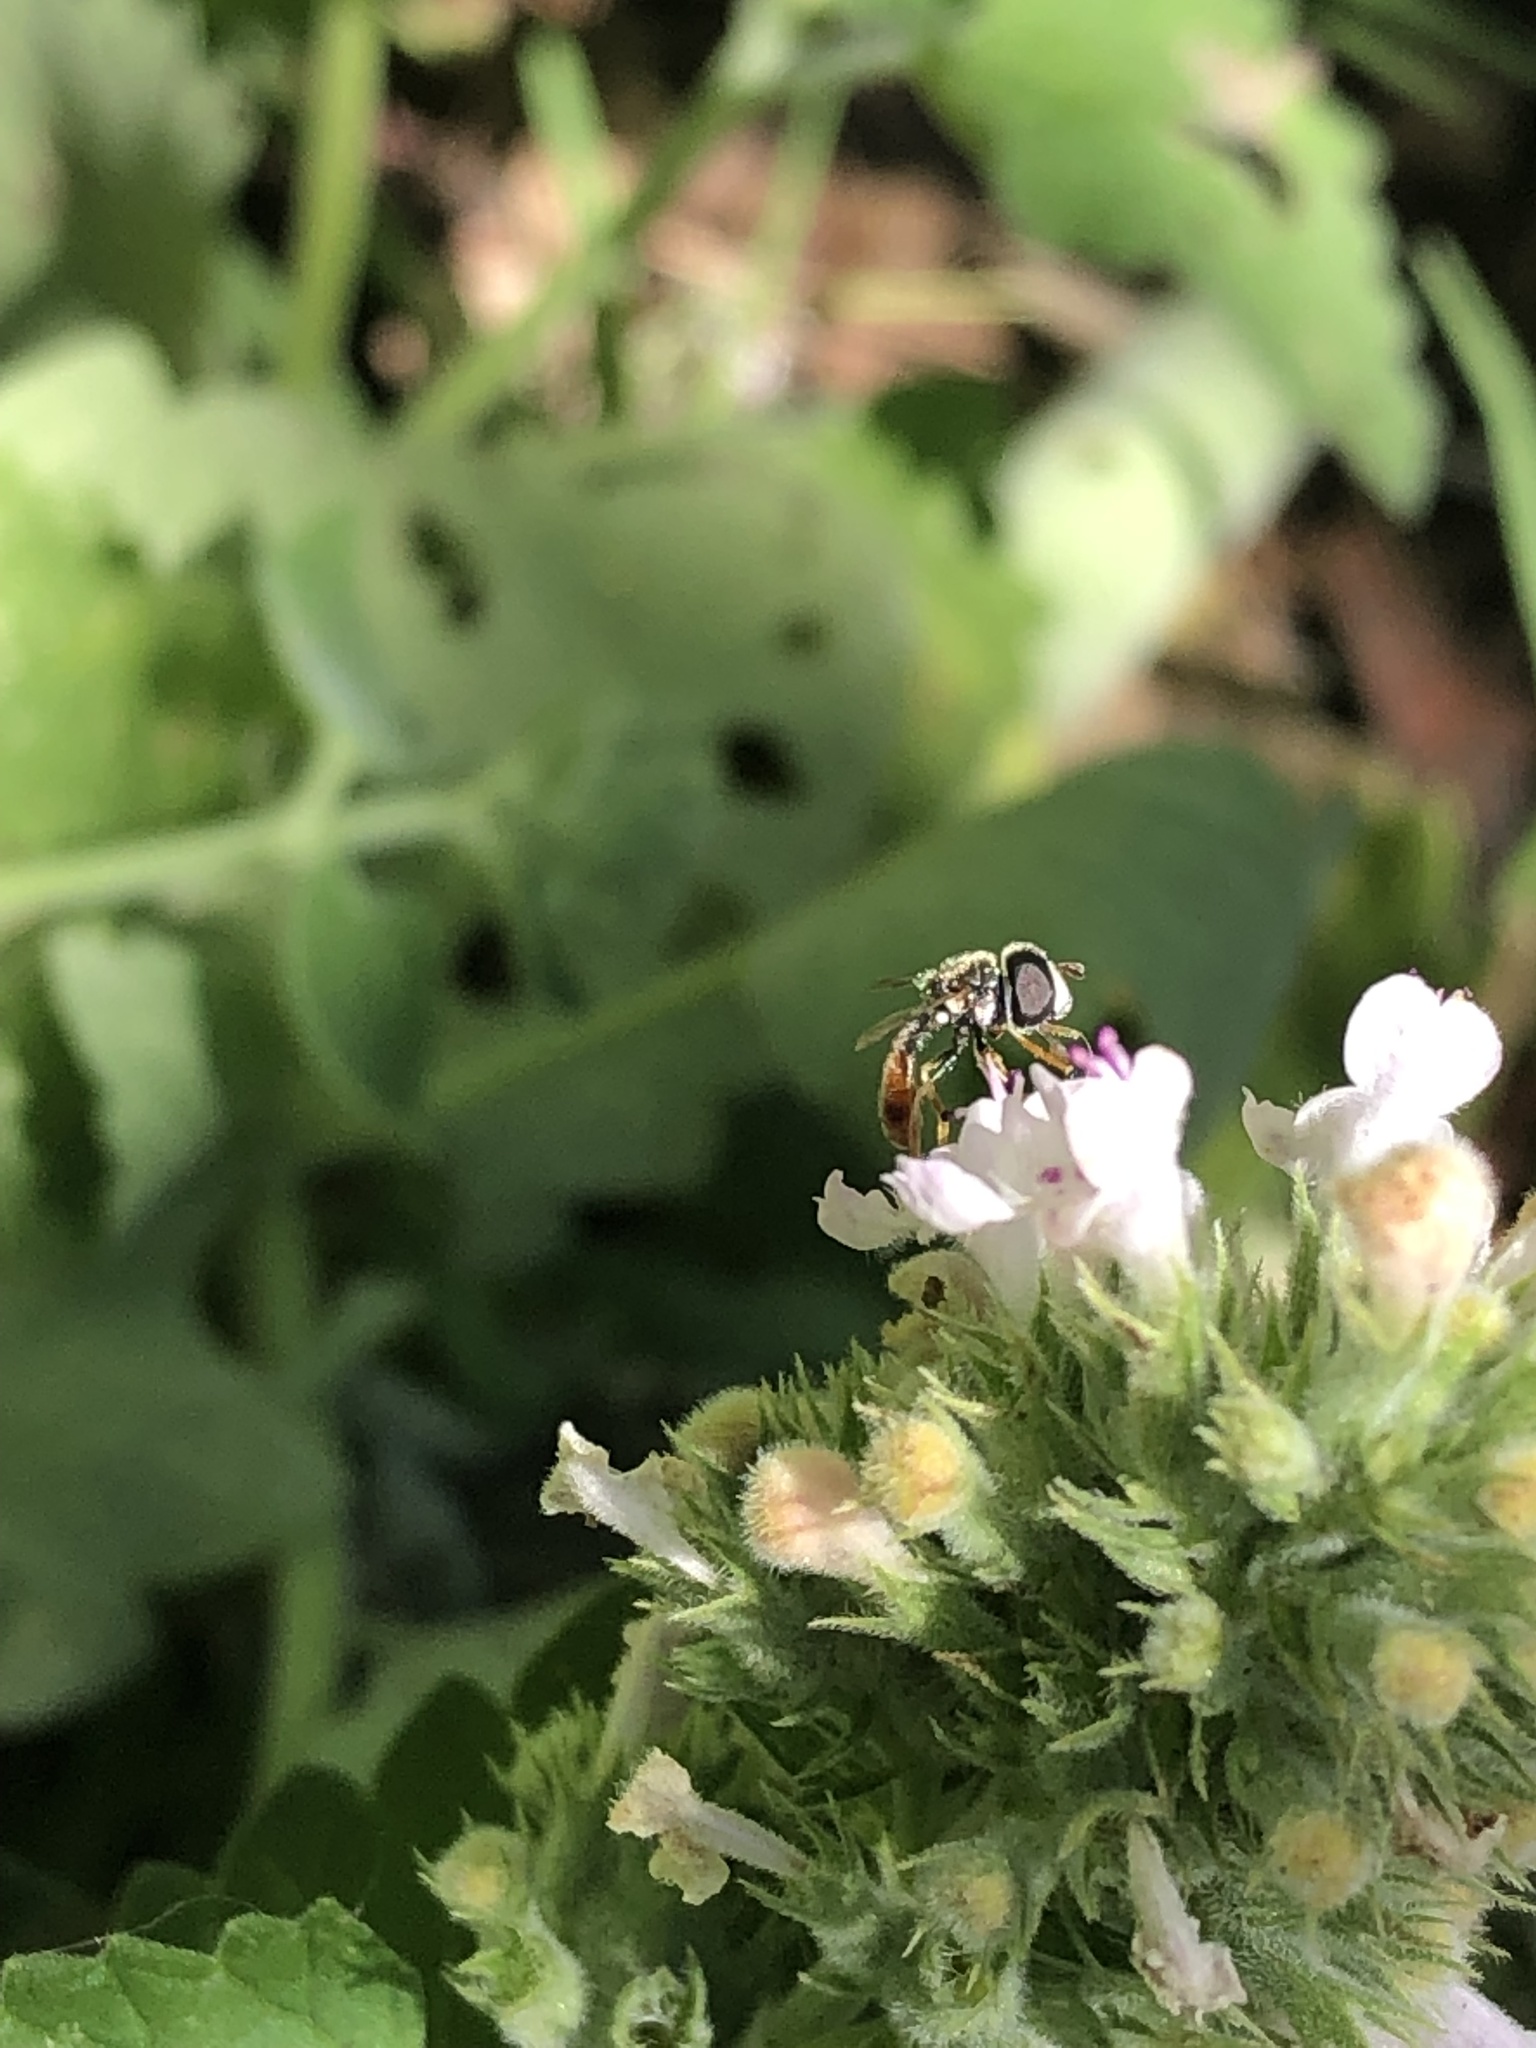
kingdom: Animalia
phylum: Arthropoda
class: Insecta
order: Diptera
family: Syrphidae
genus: Paragus
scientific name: Paragus haemorrhous
